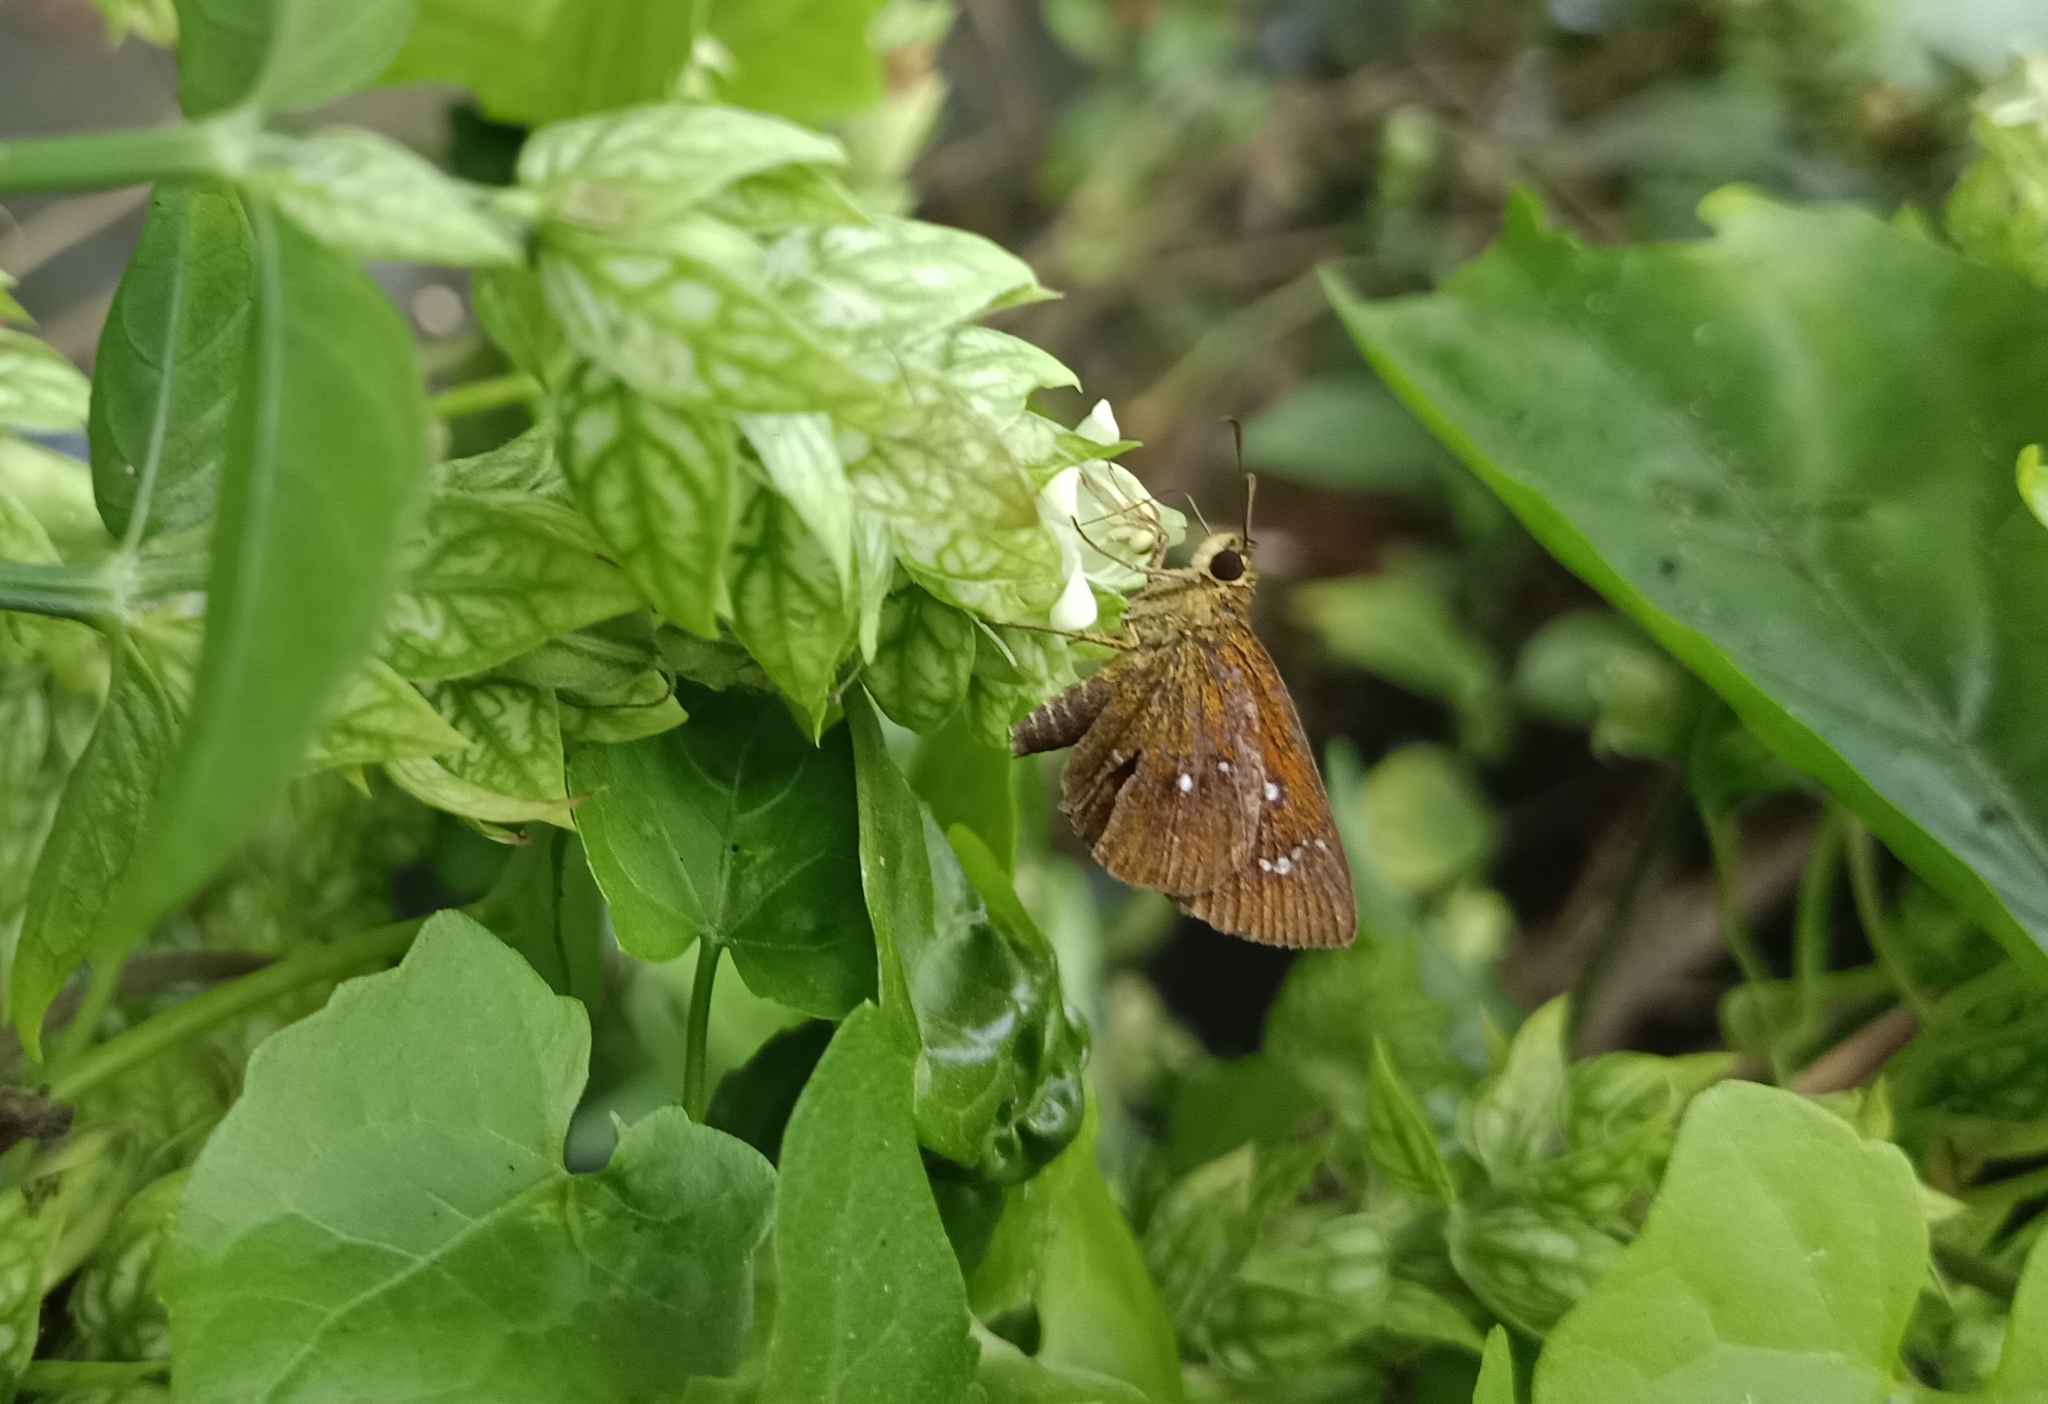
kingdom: Animalia
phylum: Arthropoda
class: Insecta
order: Lepidoptera
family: Hesperiidae
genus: Iambrix
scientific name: Iambrix salsala
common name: Chestnut bob
